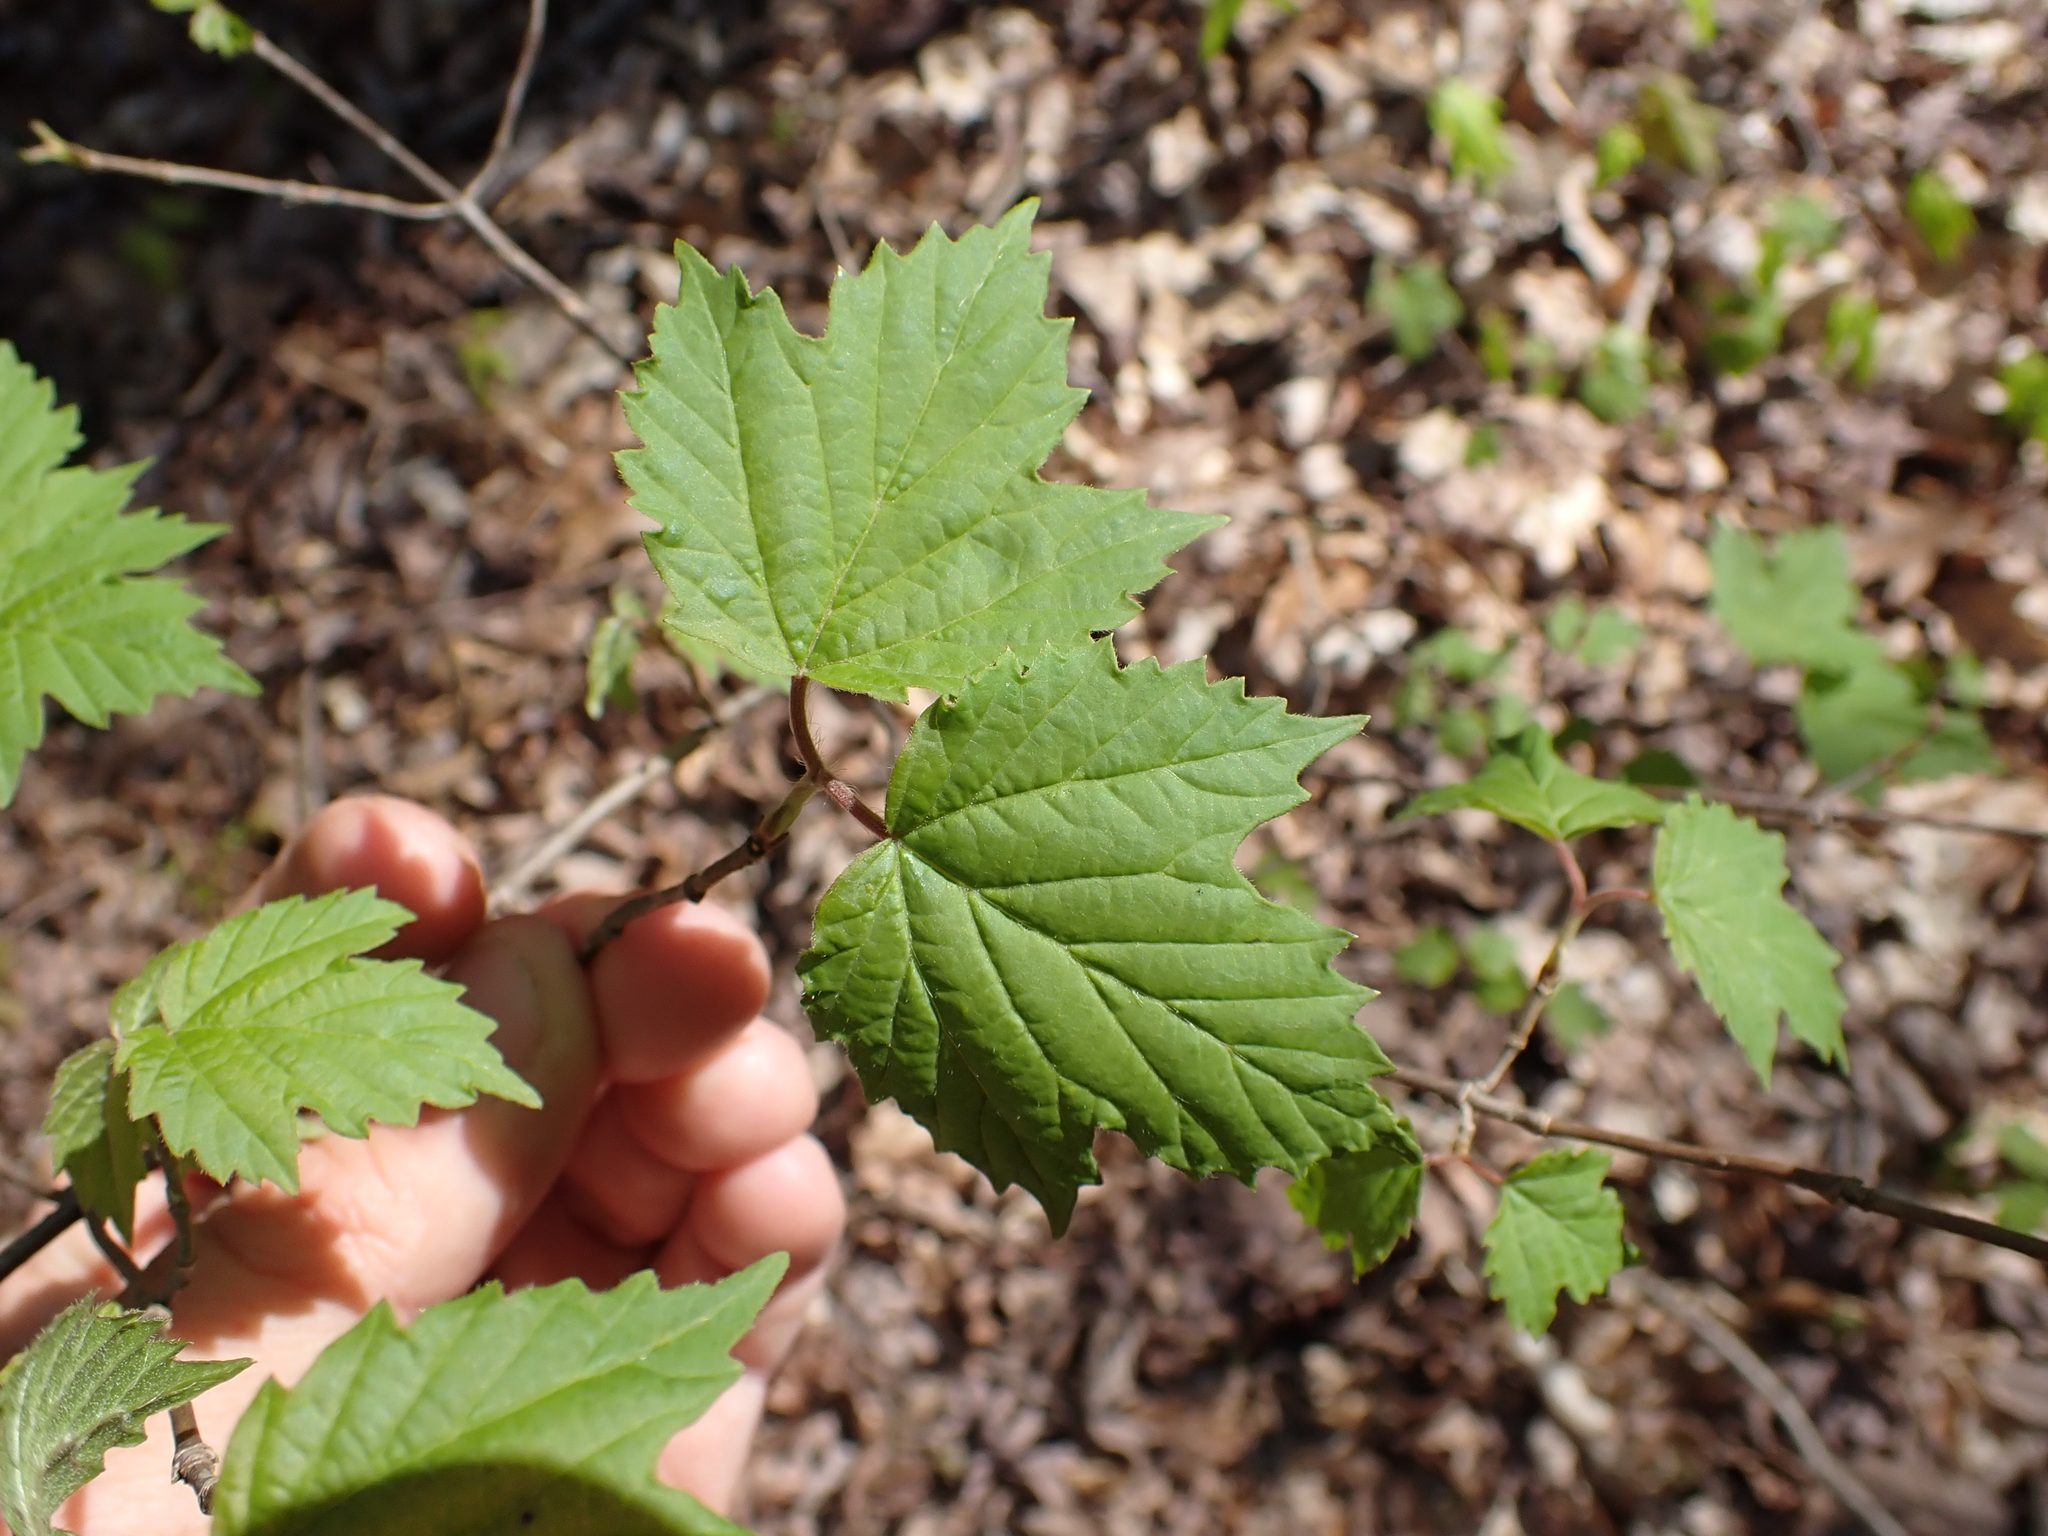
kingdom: Plantae
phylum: Tracheophyta
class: Magnoliopsida
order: Dipsacales
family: Viburnaceae
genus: Viburnum
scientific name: Viburnum acerifolium
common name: Dockmackie
